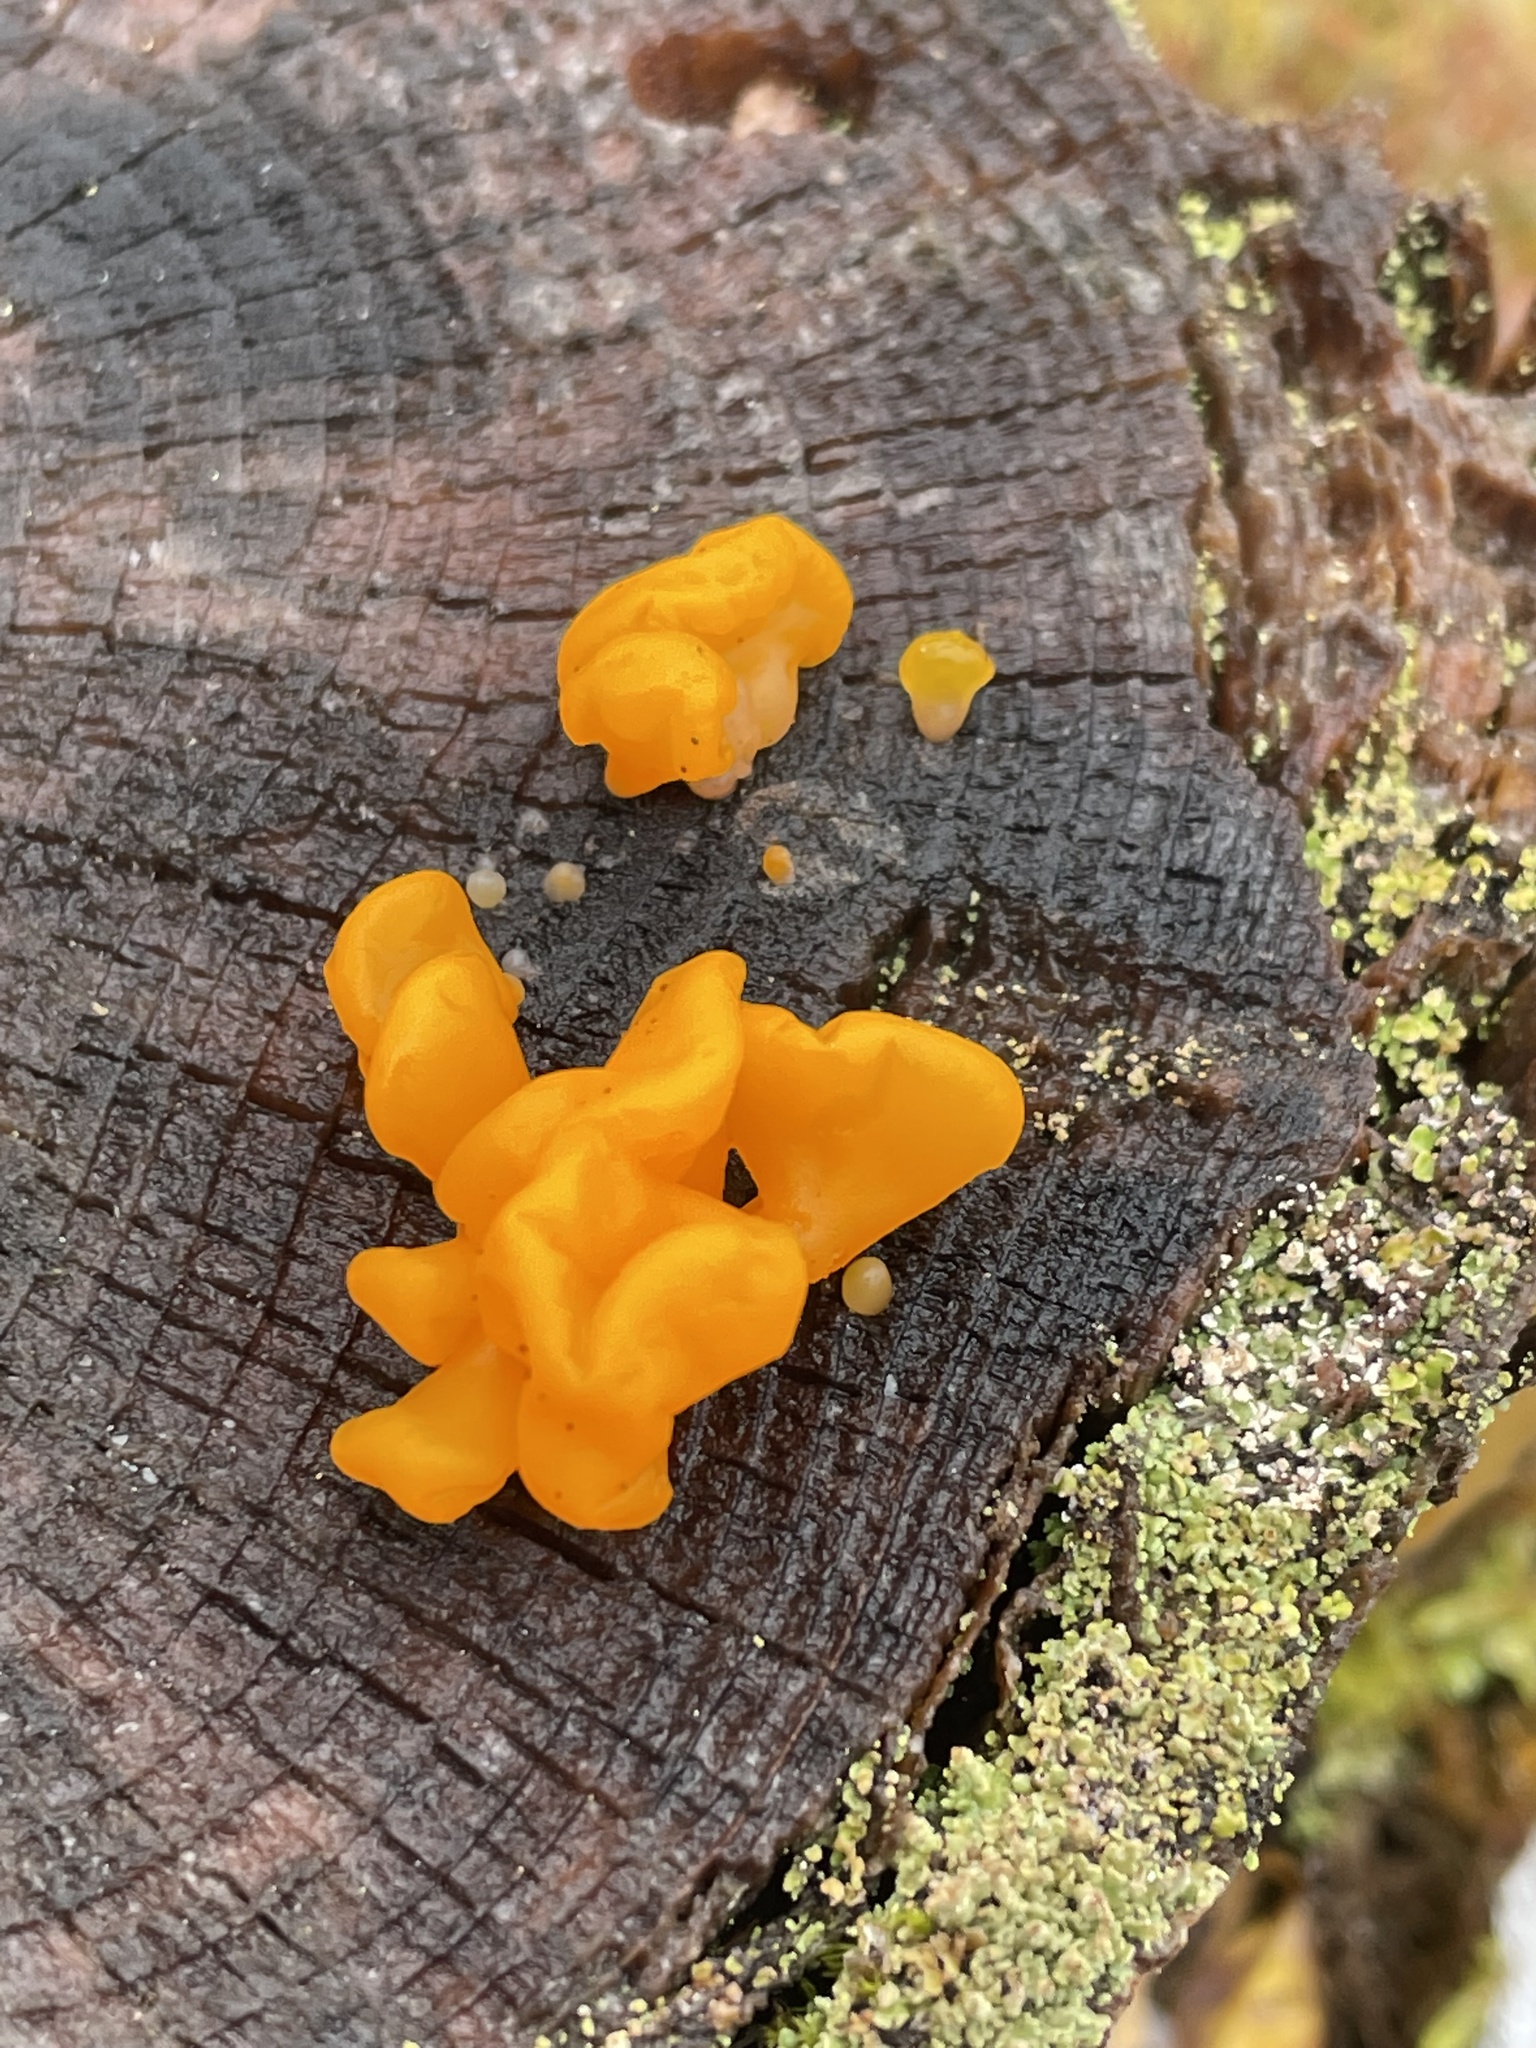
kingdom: Fungi
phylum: Basidiomycota
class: Dacrymycetes
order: Dacrymycetales
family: Dacrymycetaceae
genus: Dacrymyces
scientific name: Dacrymyces chrysospermus
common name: Orange jelly spot
